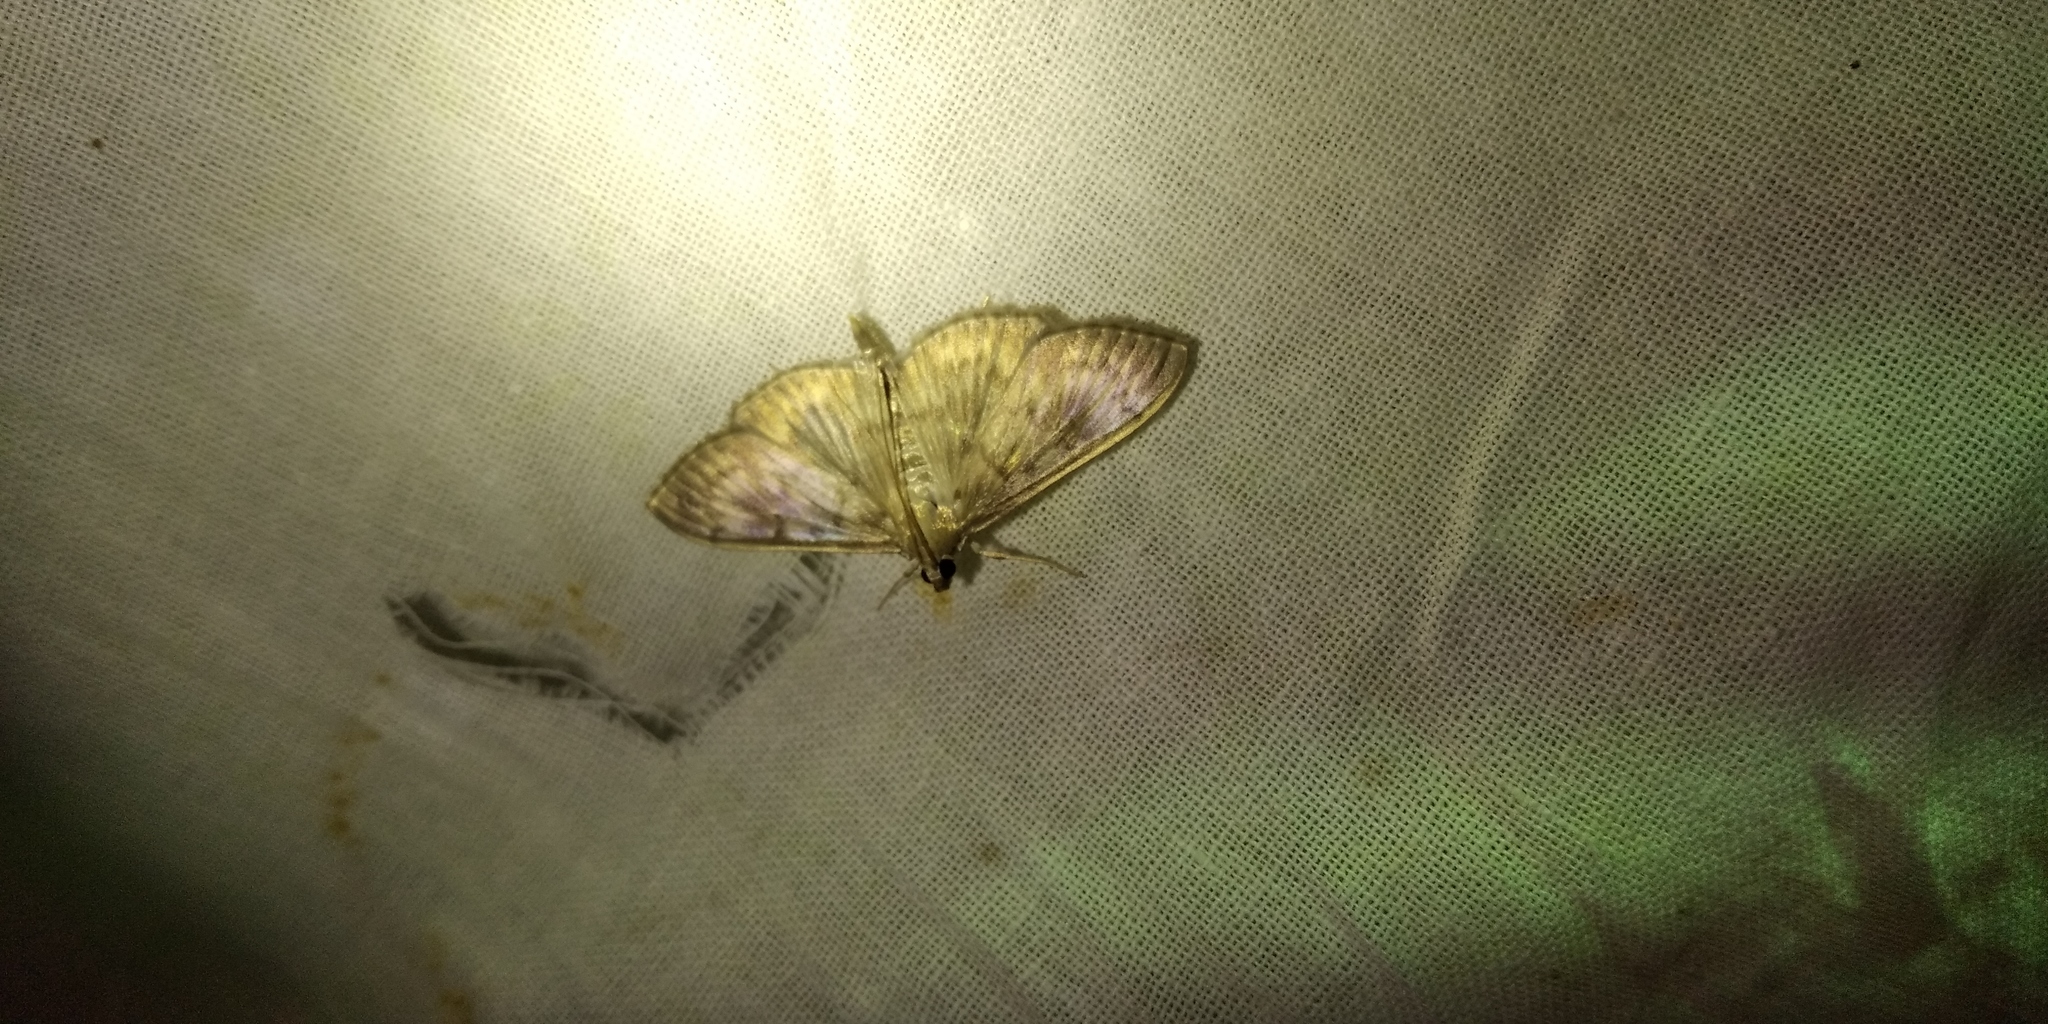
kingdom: Animalia
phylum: Arthropoda
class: Insecta
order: Lepidoptera
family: Crambidae
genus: Patania
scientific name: Patania ruralis
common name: Mother of pearl
